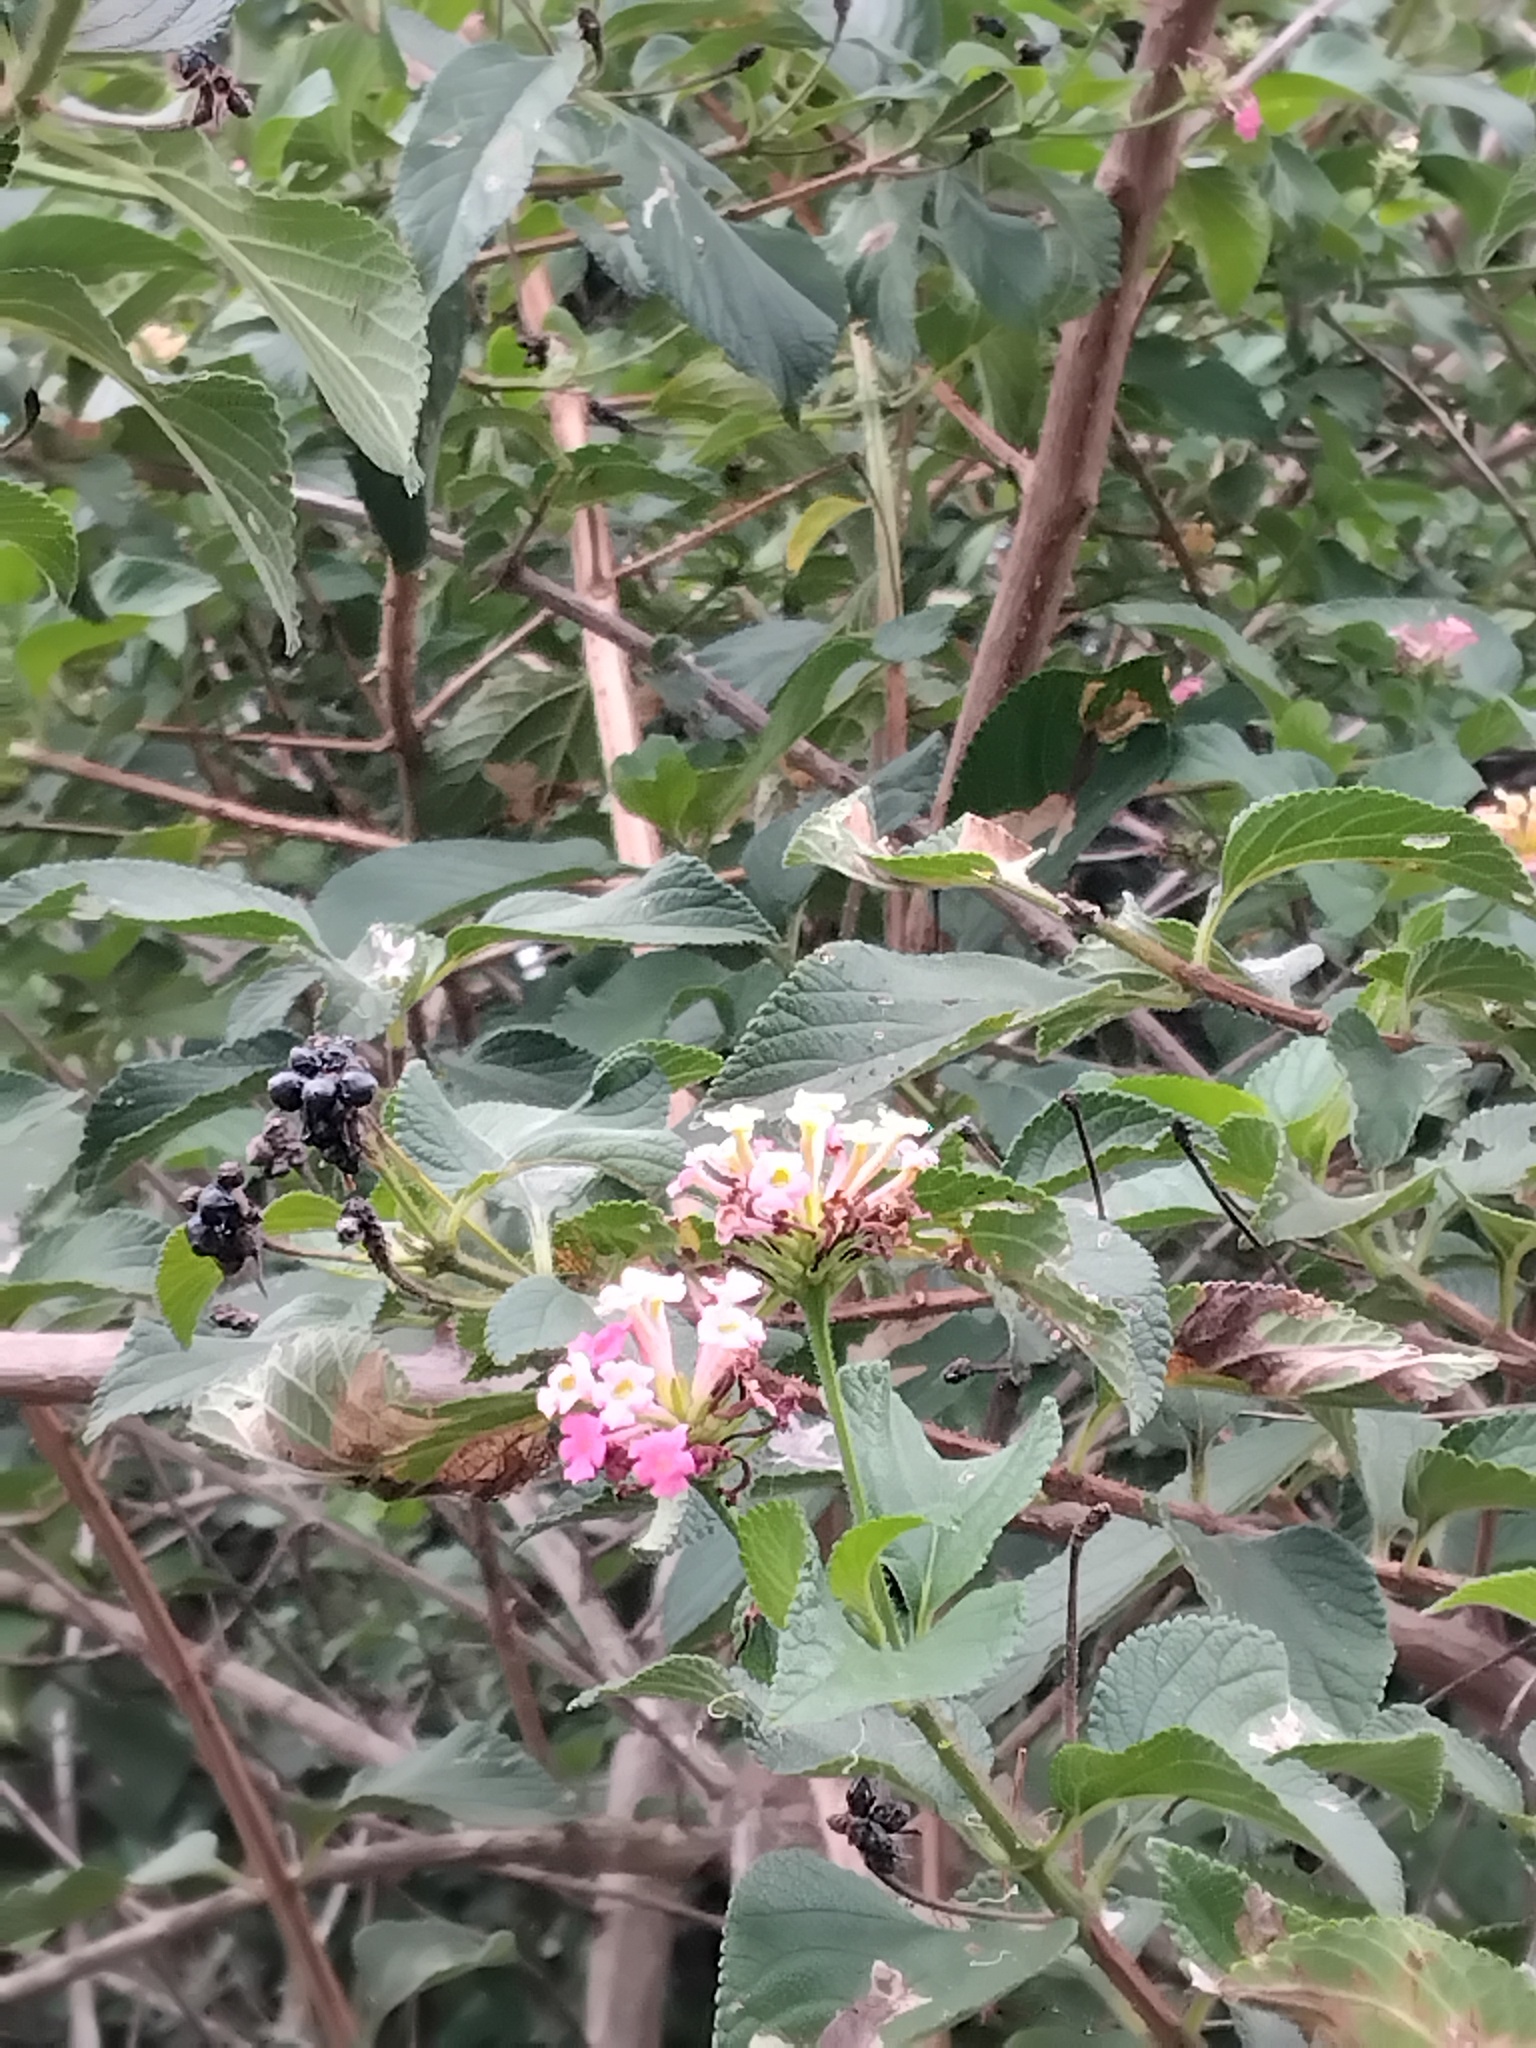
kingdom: Plantae
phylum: Tracheophyta
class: Magnoliopsida
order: Lamiales
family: Verbenaceae
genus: Lantana
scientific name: Lantana camara
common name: Lantana
